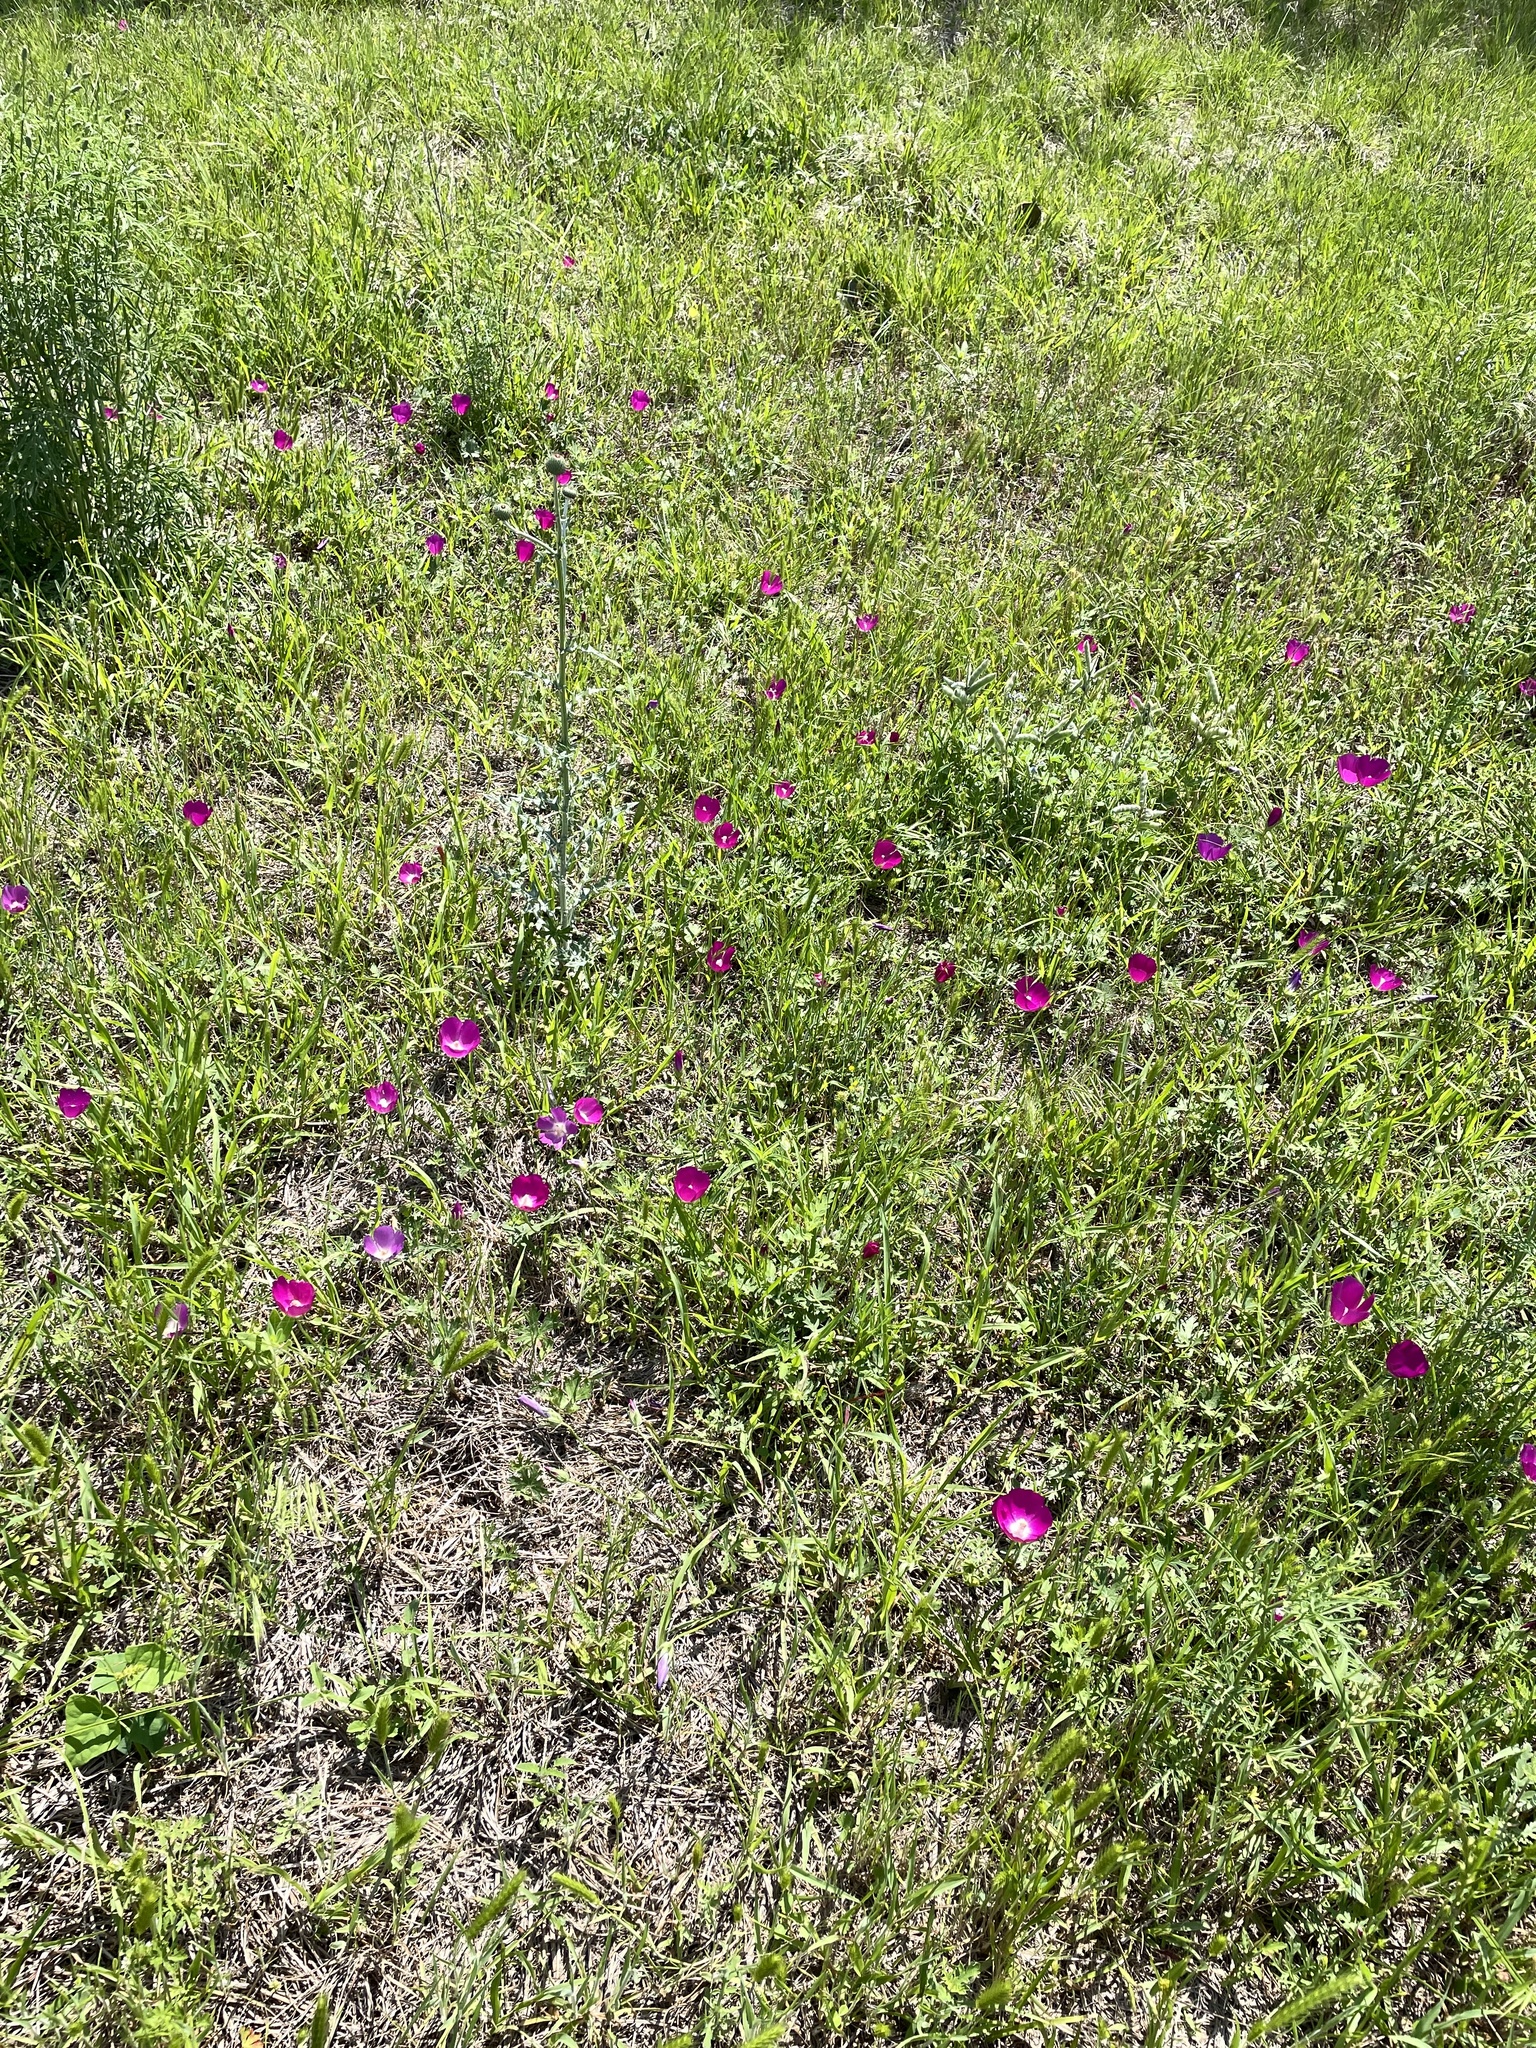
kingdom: Plantae
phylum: Tracheophyta
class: Magnoliopsida
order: Malvales
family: Malvaceae
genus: Callirhoe
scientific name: Callirhoe involucrata
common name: Purple poppy-mallow
